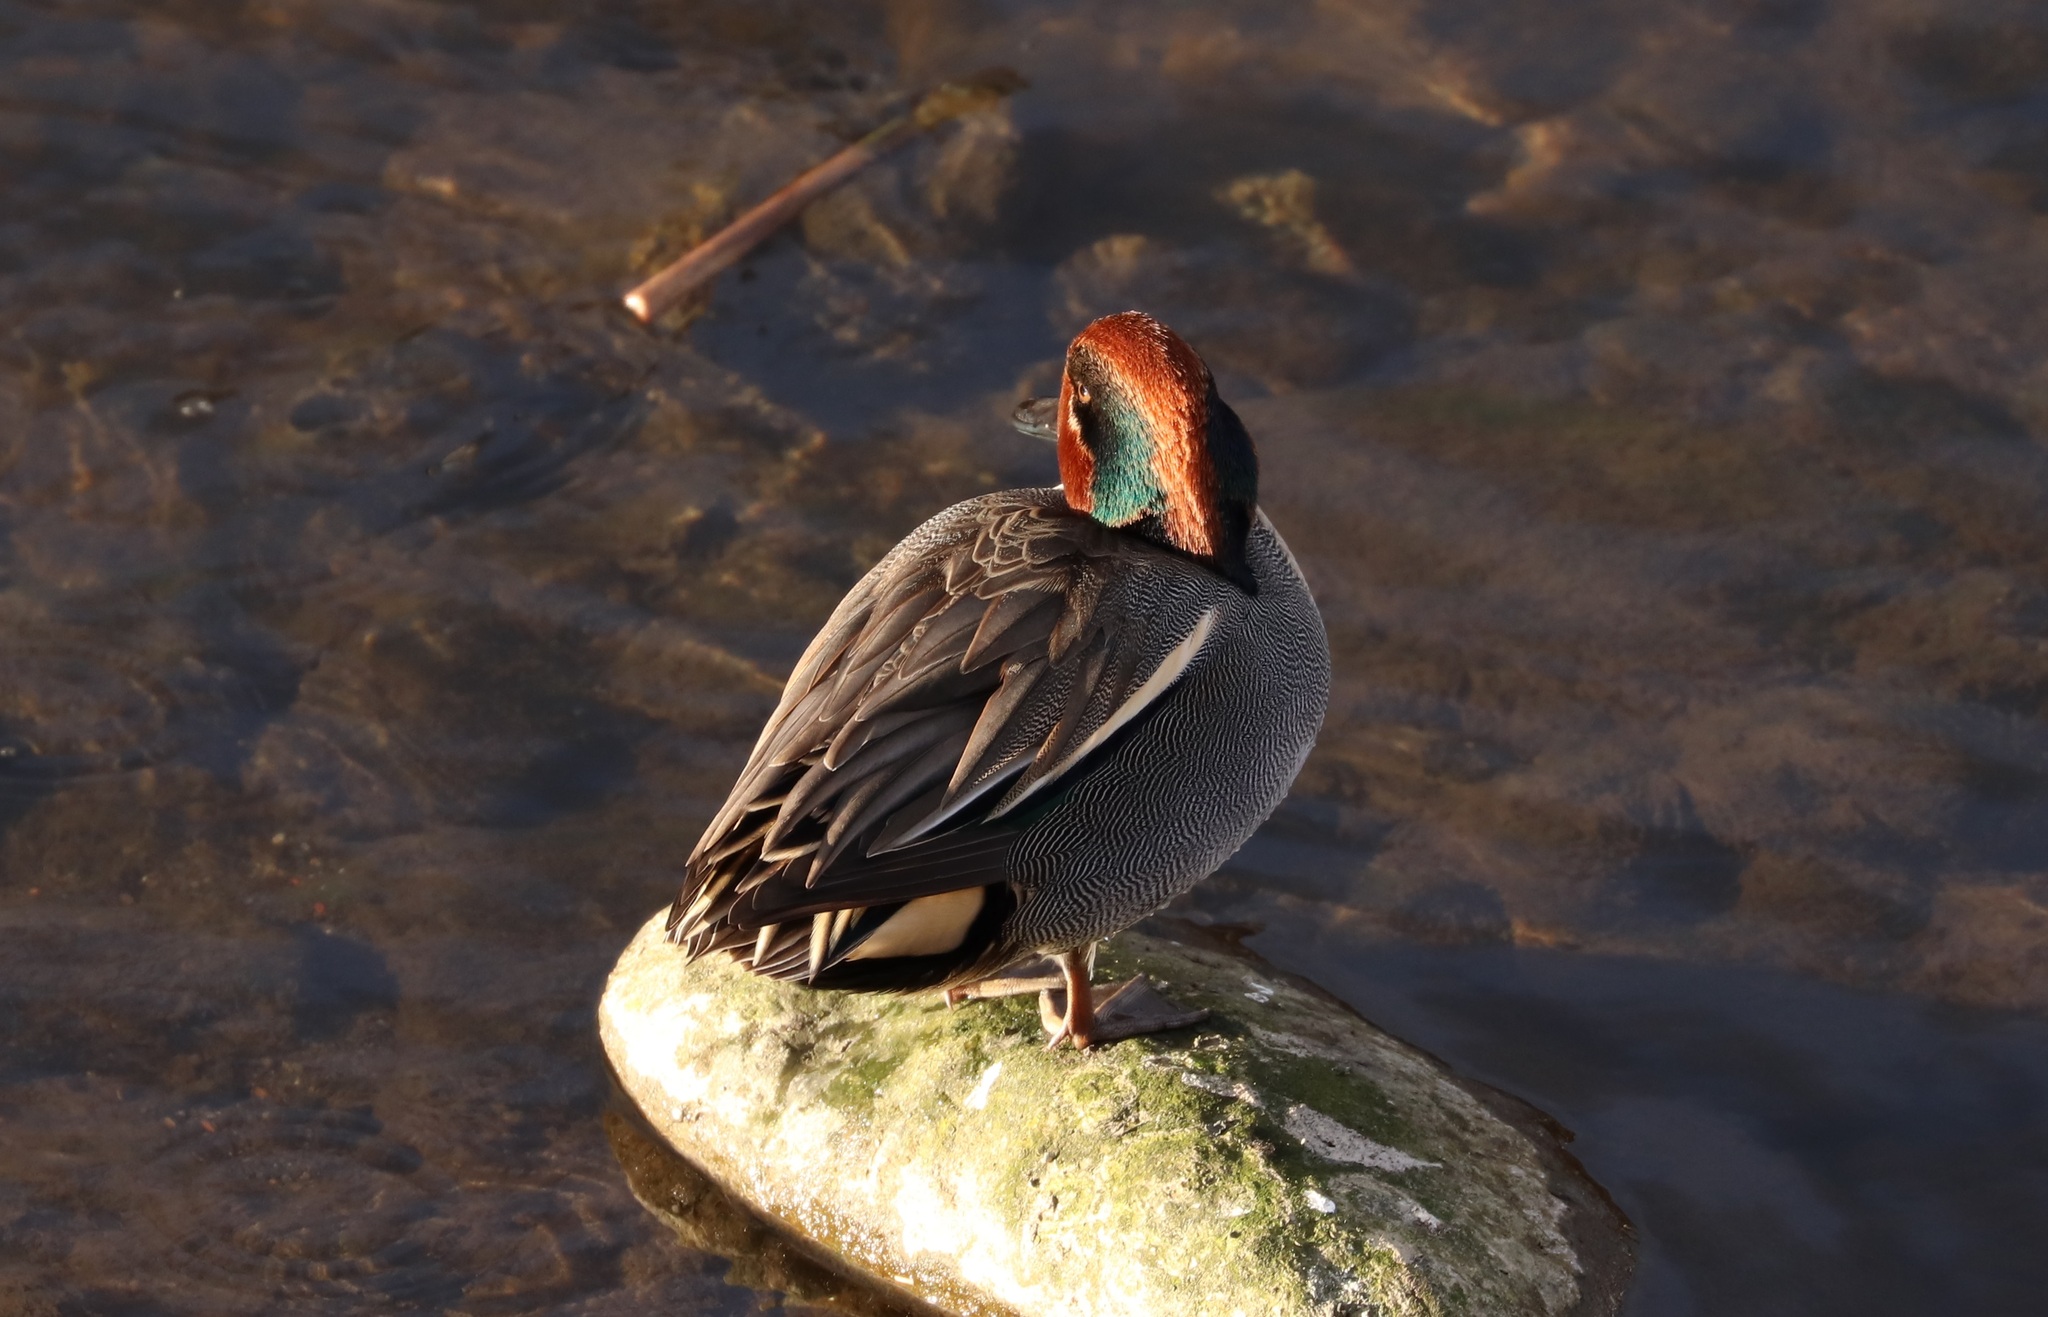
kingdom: Animalia
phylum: Chordata
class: Aves
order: Anseriformes
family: Anatidae
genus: Anas
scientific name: Anas crecca
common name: Eurasian teal
